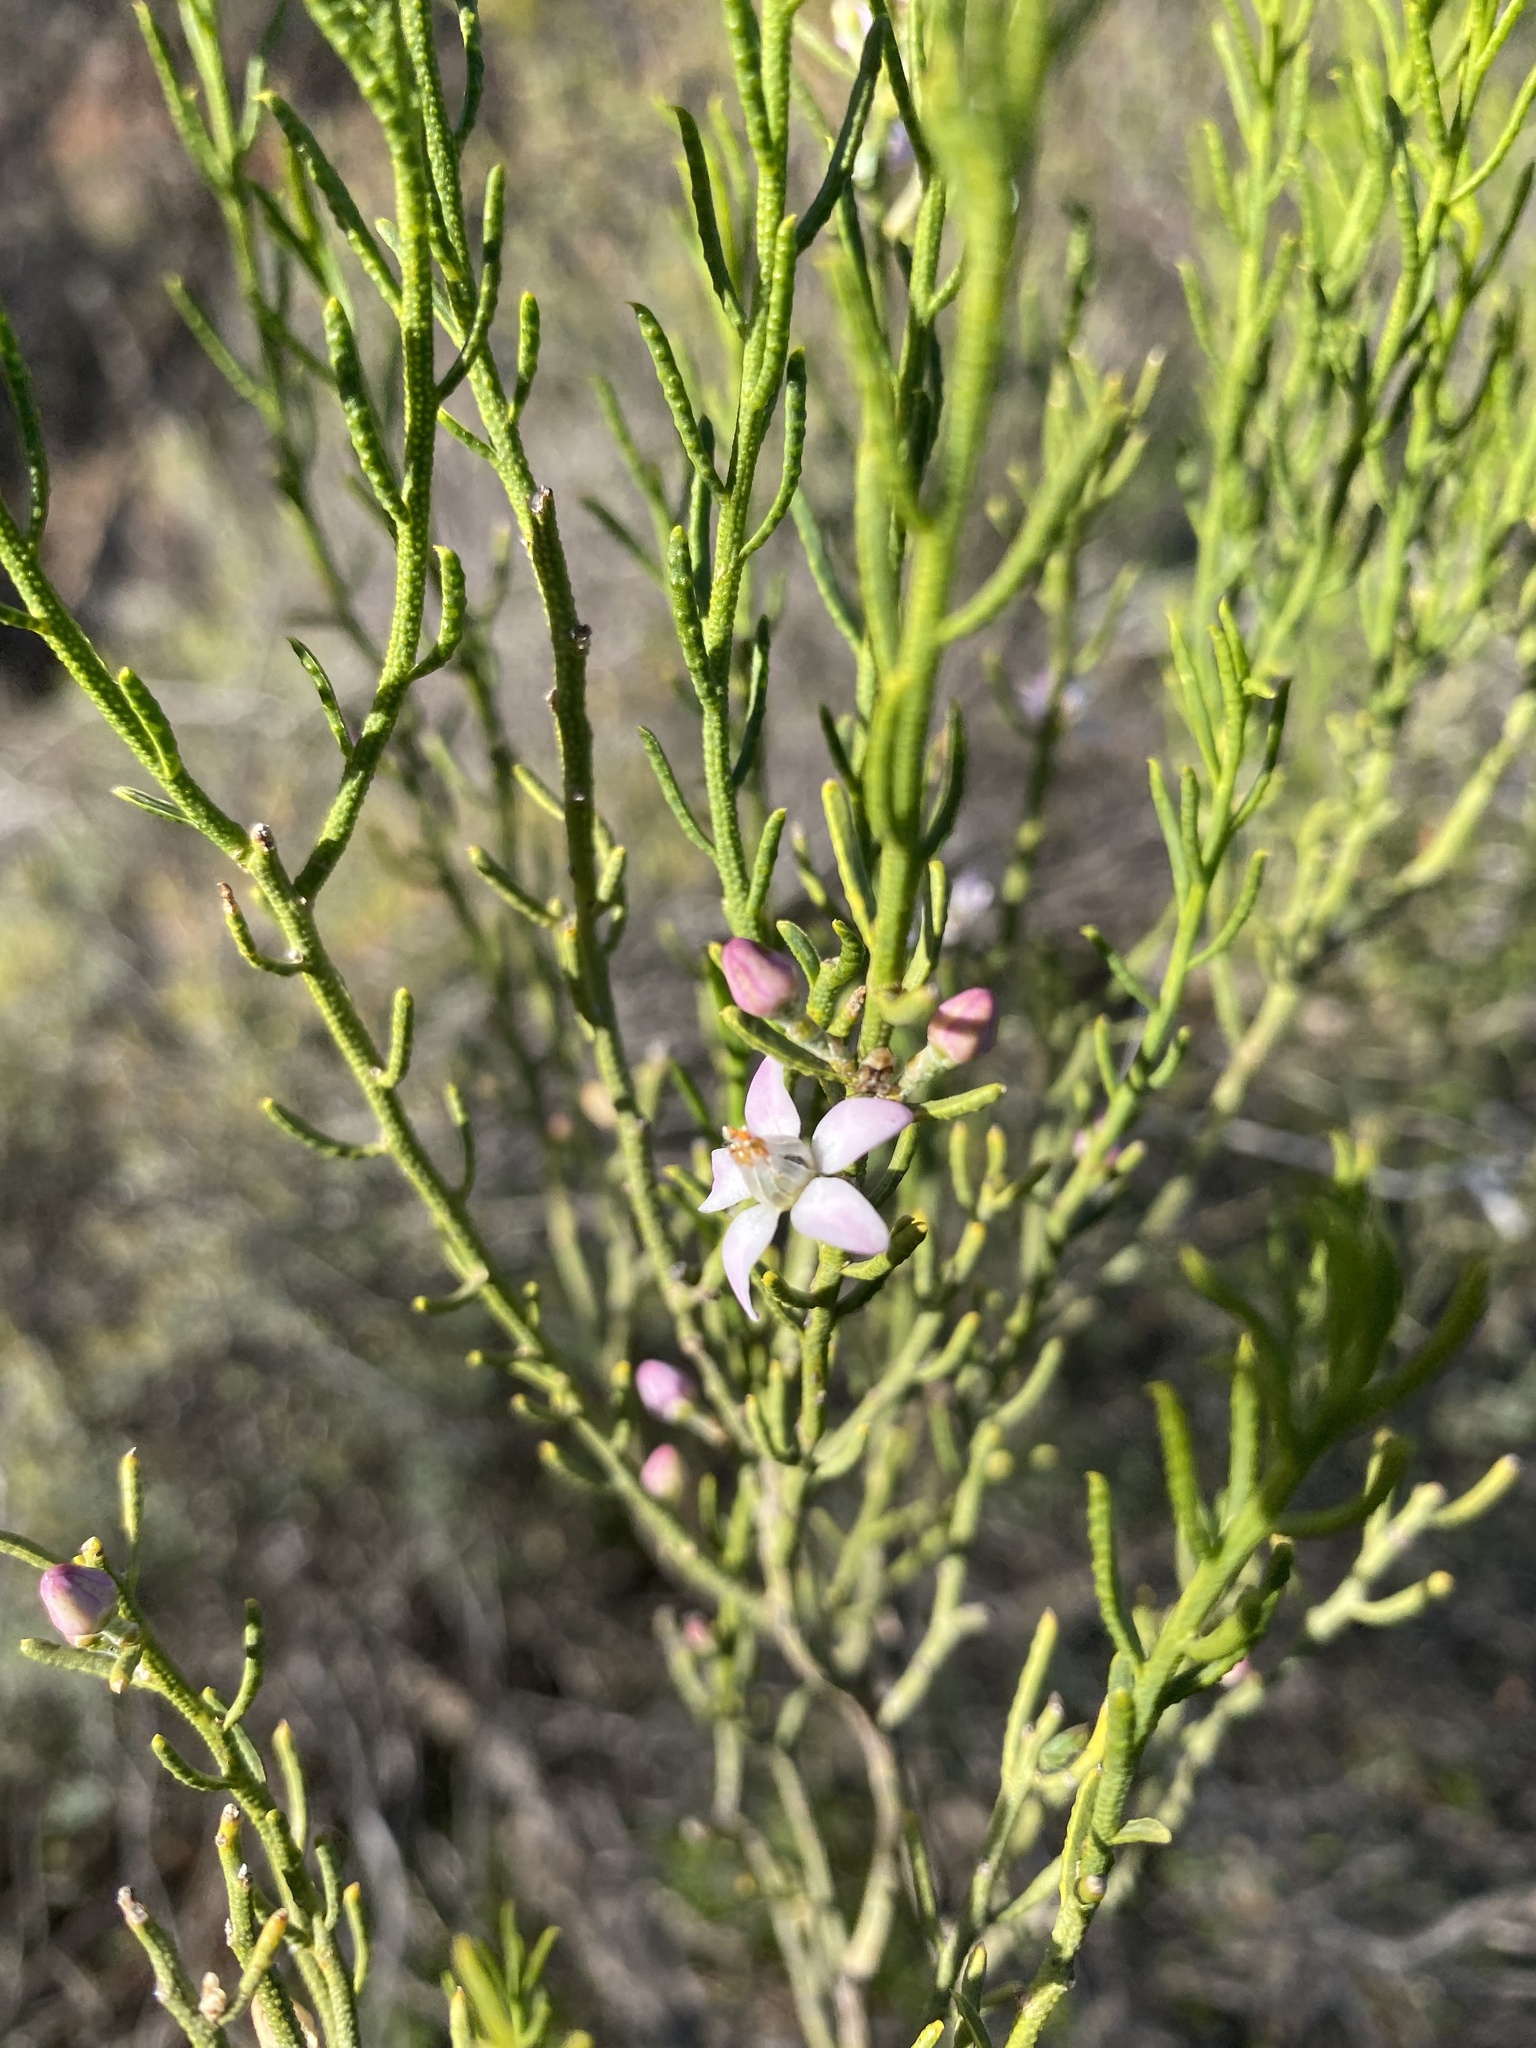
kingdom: Plantae
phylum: Tracheophyta
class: Magnoliopsida
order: Sapindales
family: Rutaceae
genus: Philotheca
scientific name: Philotheca brucei
